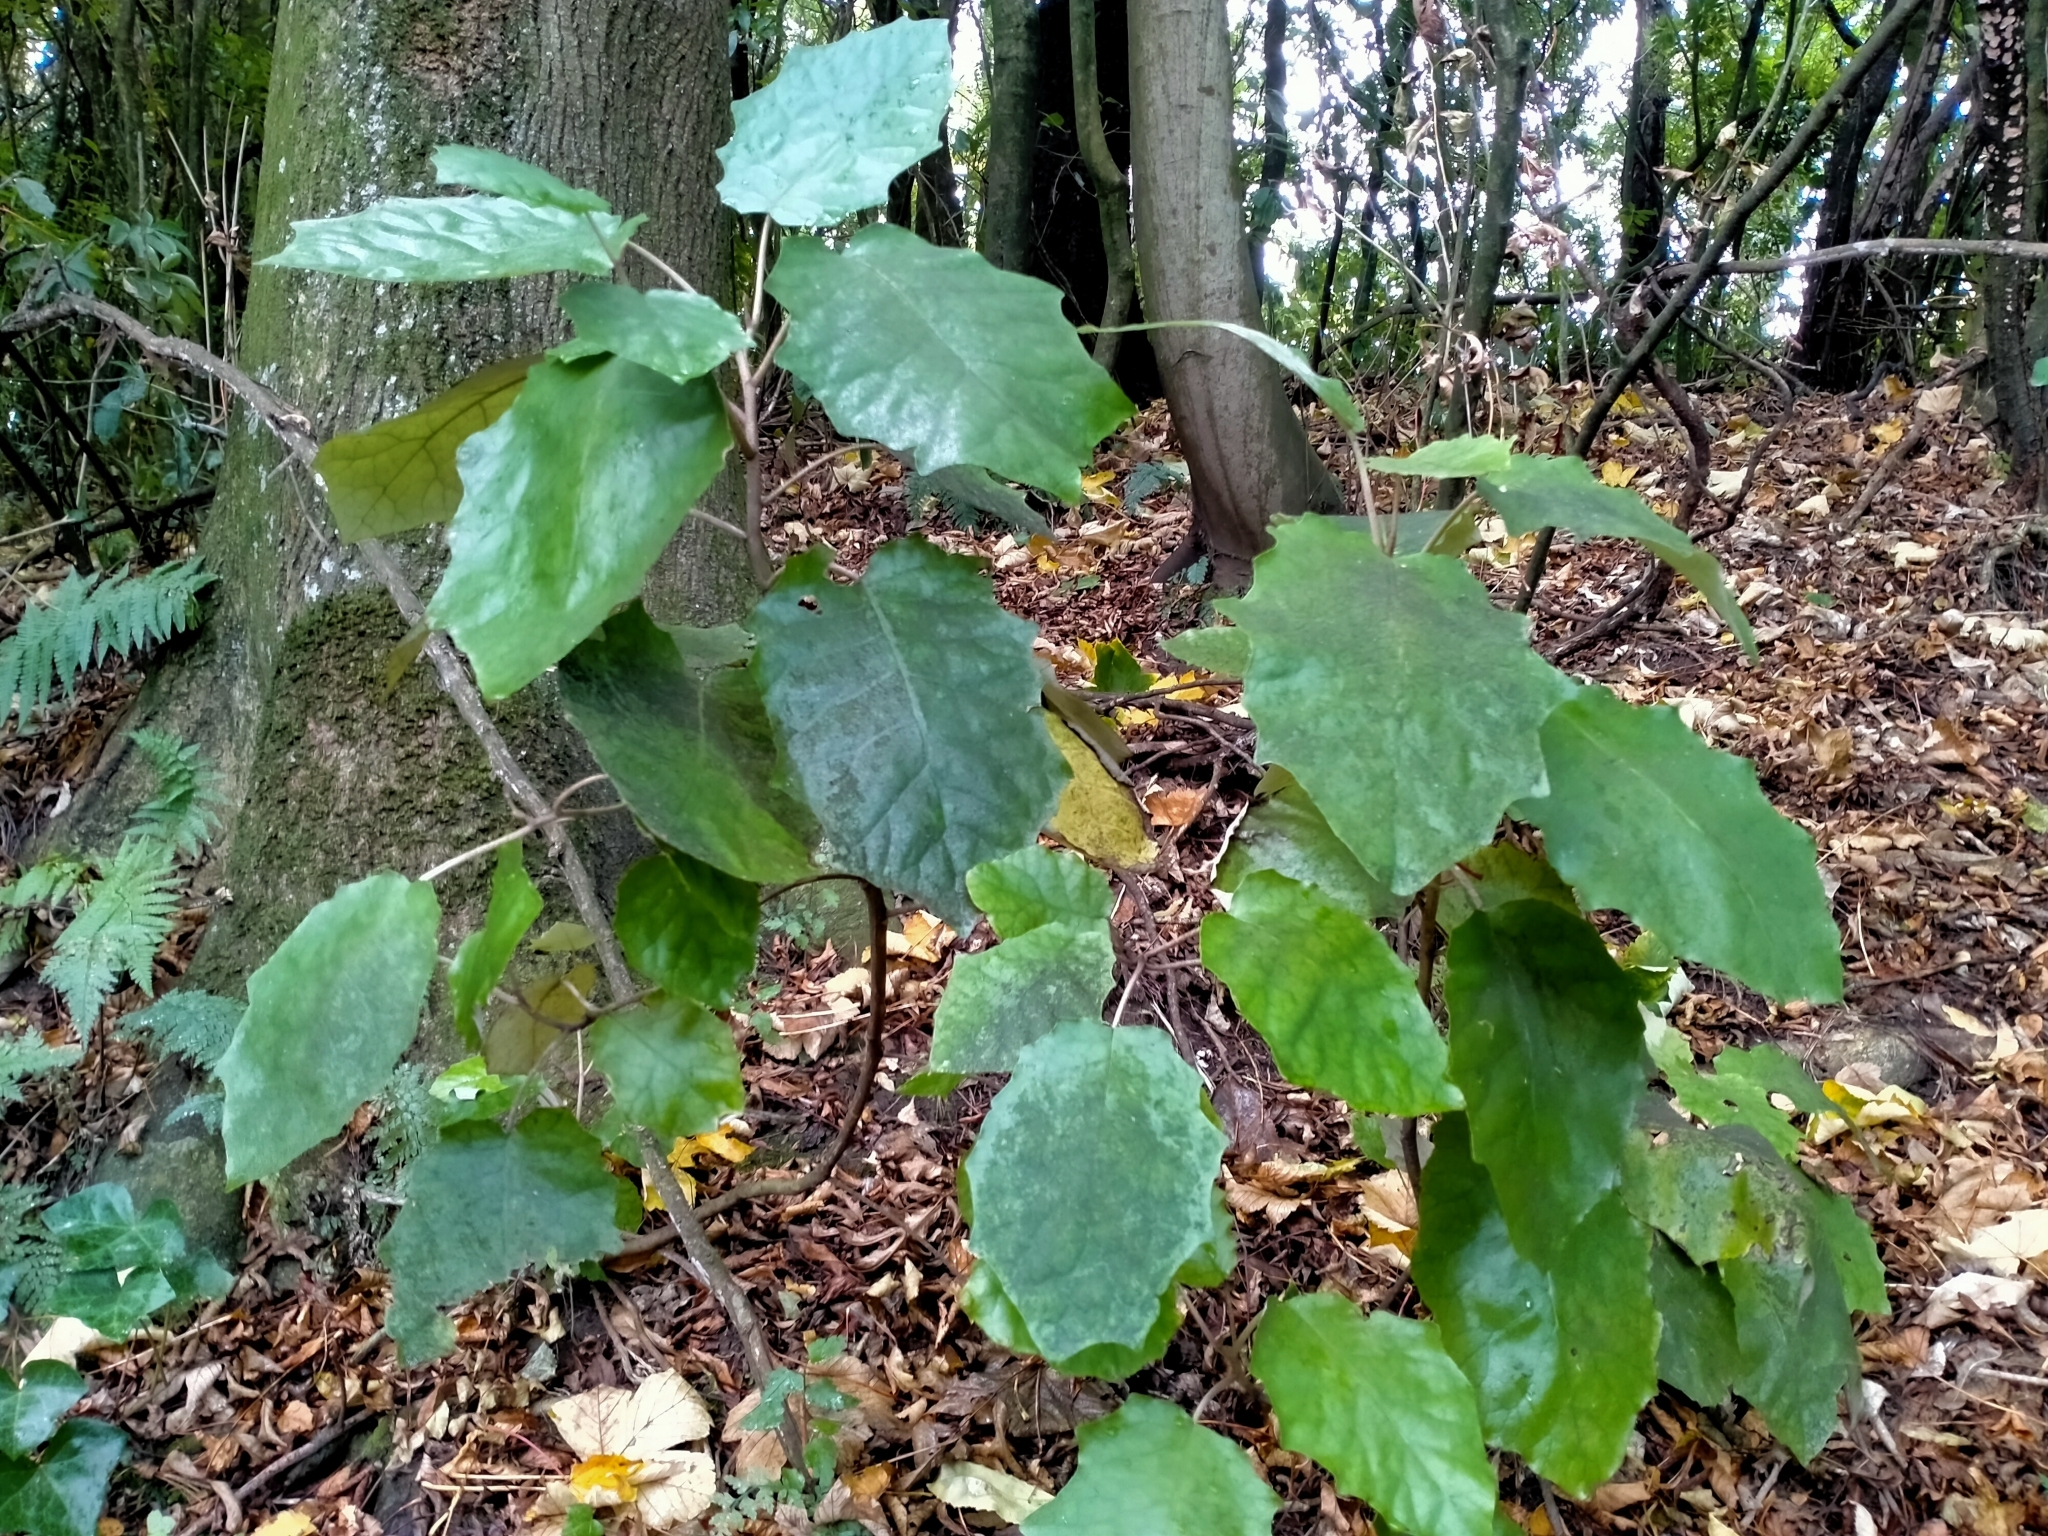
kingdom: Plantae
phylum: Tracheophyta
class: Magnoliopsida
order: Asterales
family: Asteraceae
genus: Brachyglottis
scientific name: Brachyglottis repanda
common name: Hedge ragwort
